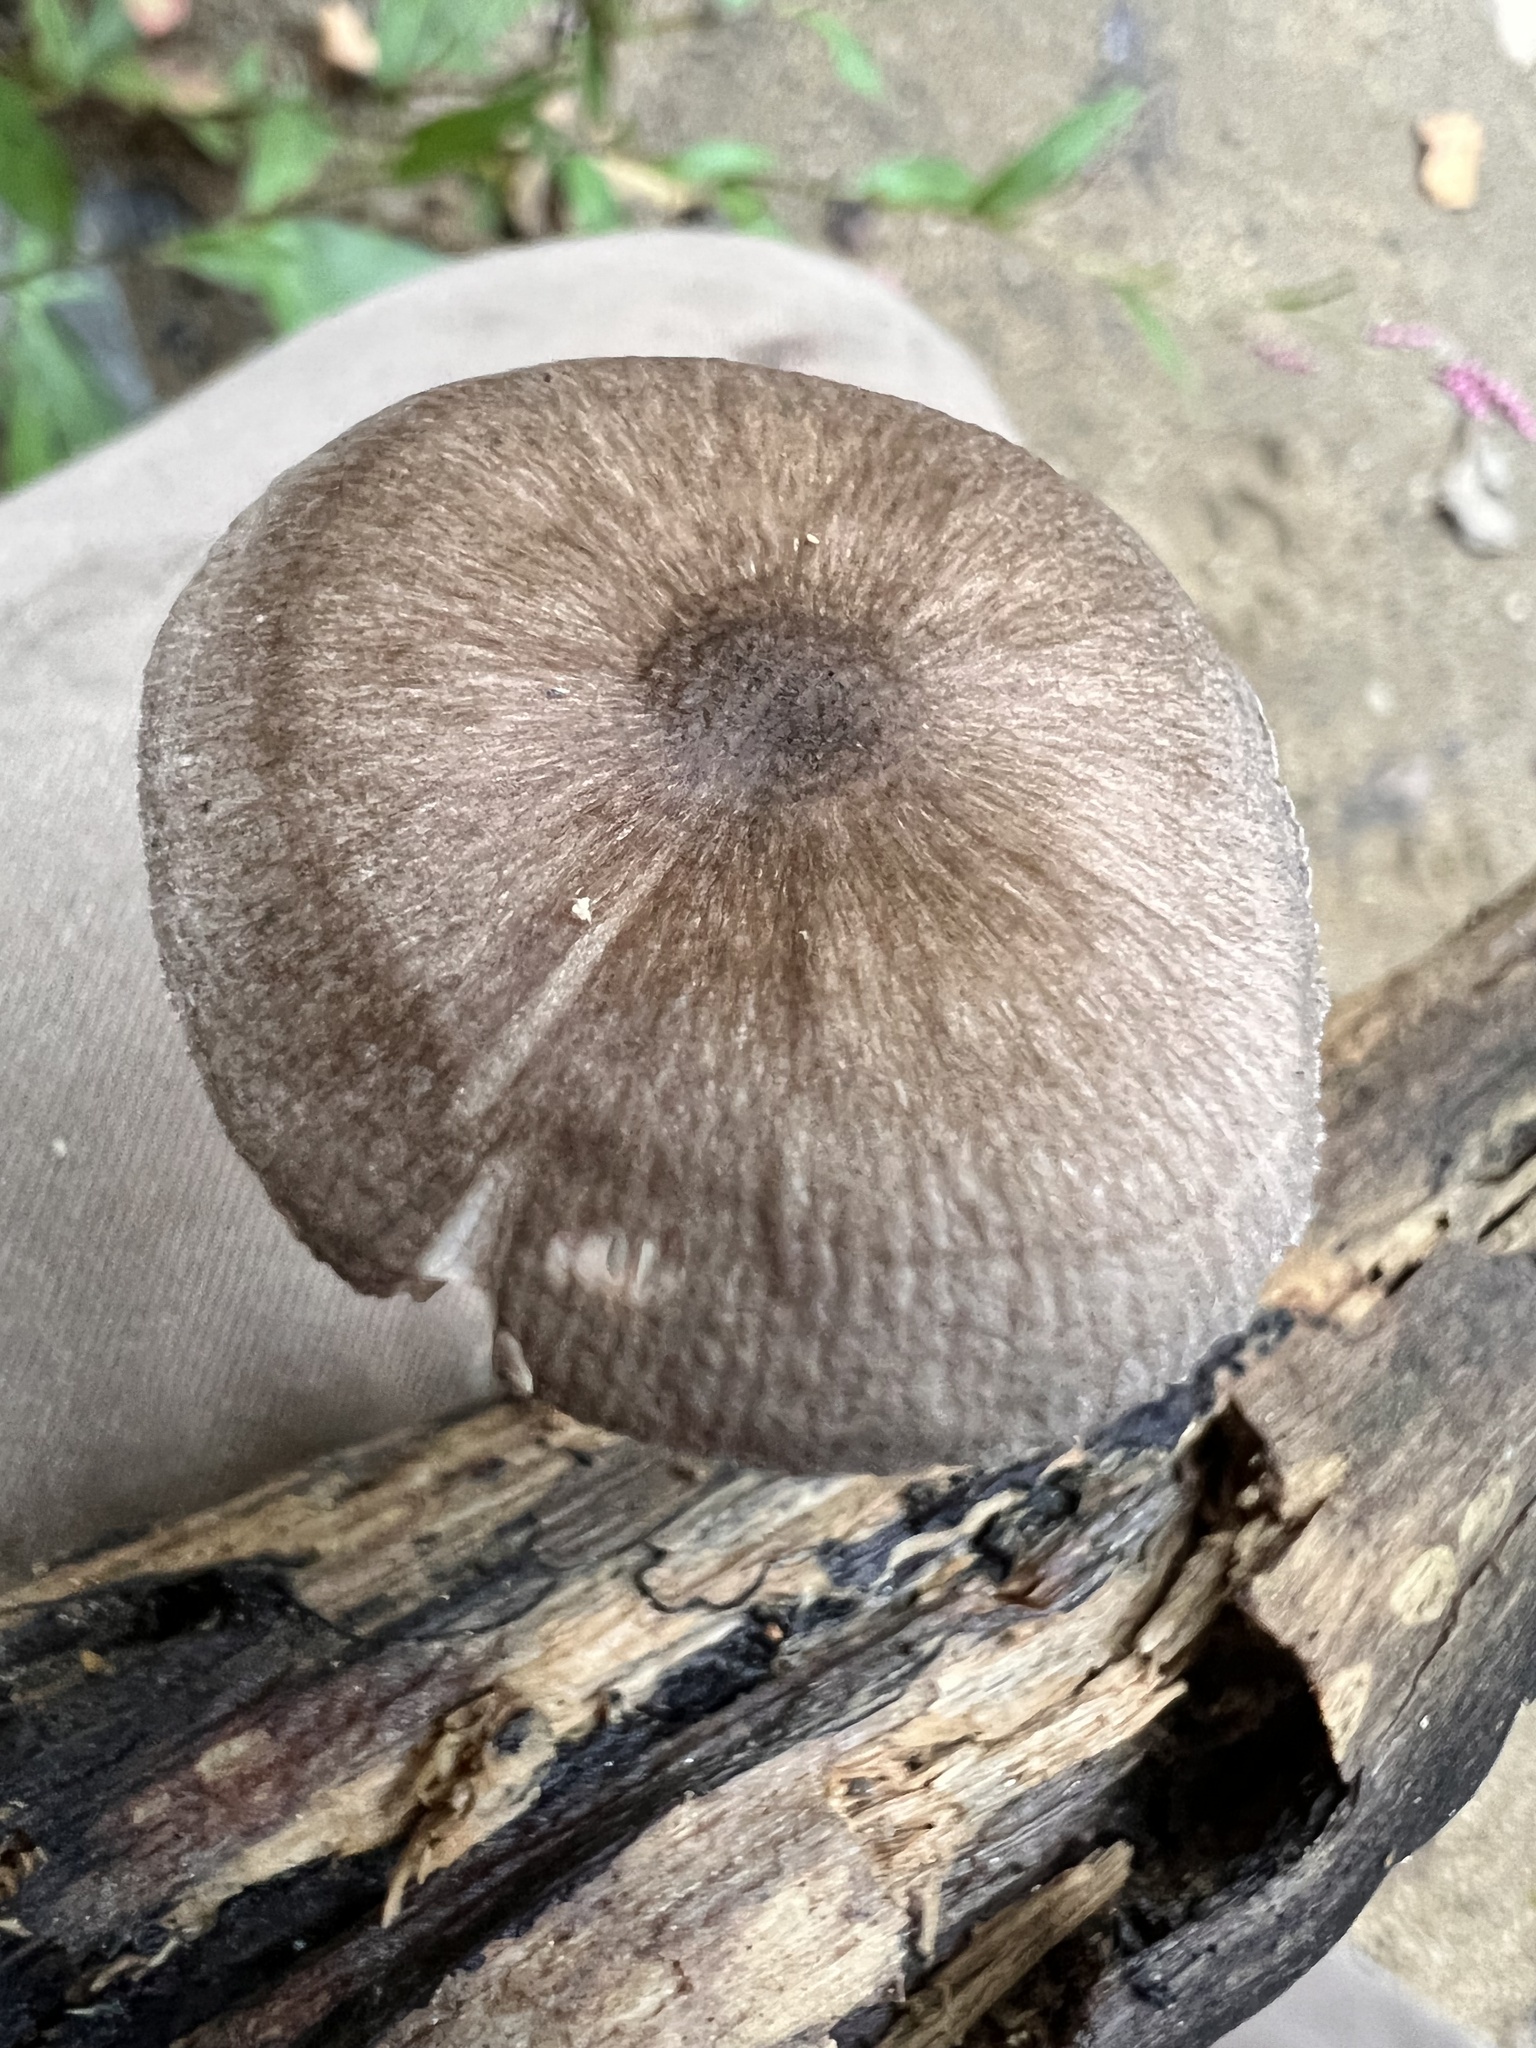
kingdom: Fungi
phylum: Basidiomycota
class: Agaricomycetes
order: Agaricales
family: Pluteaceae
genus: Pluteus
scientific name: Pluteus longistriatus
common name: Pleated pluteus
